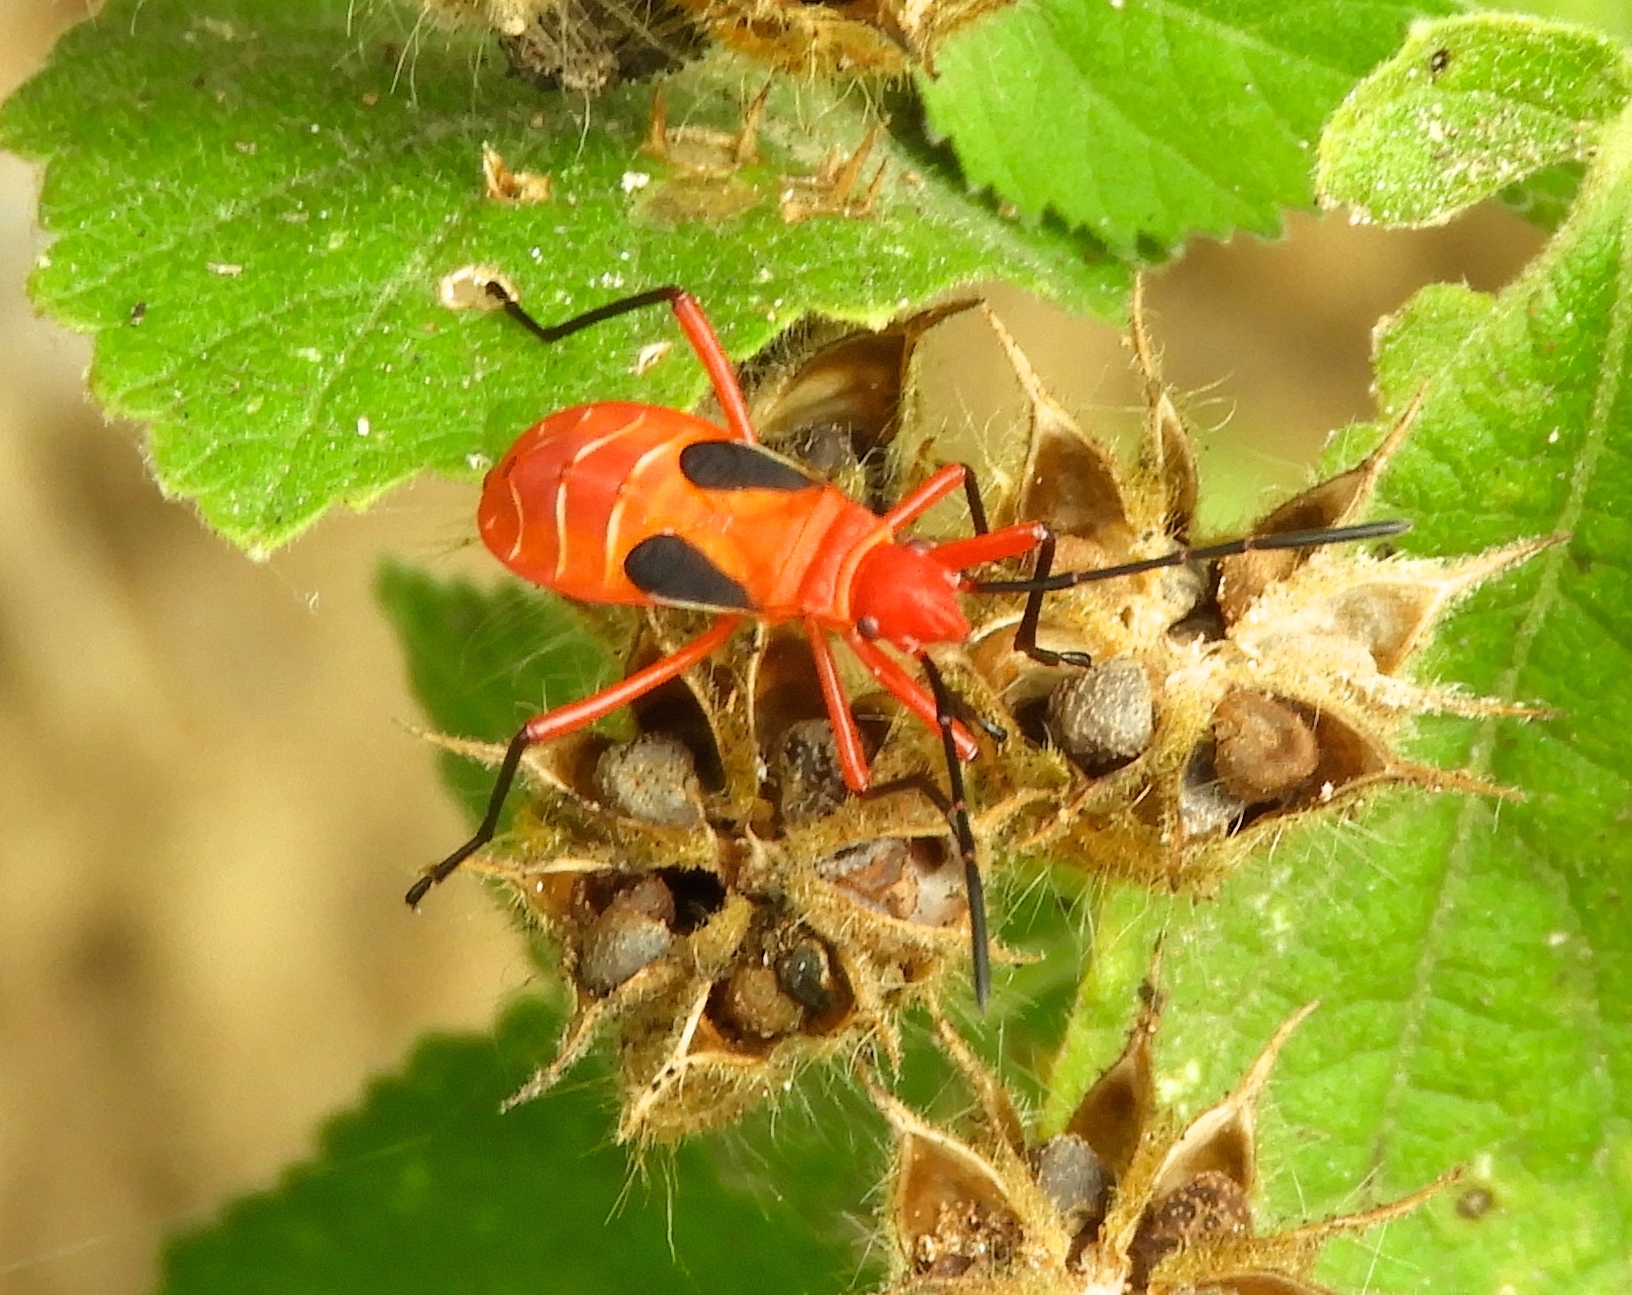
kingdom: Animalia
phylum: Arthropoda
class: Insecta
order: Hemiptera
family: Pyrrhocoridae
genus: Dysdercus
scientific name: Dysdercus
